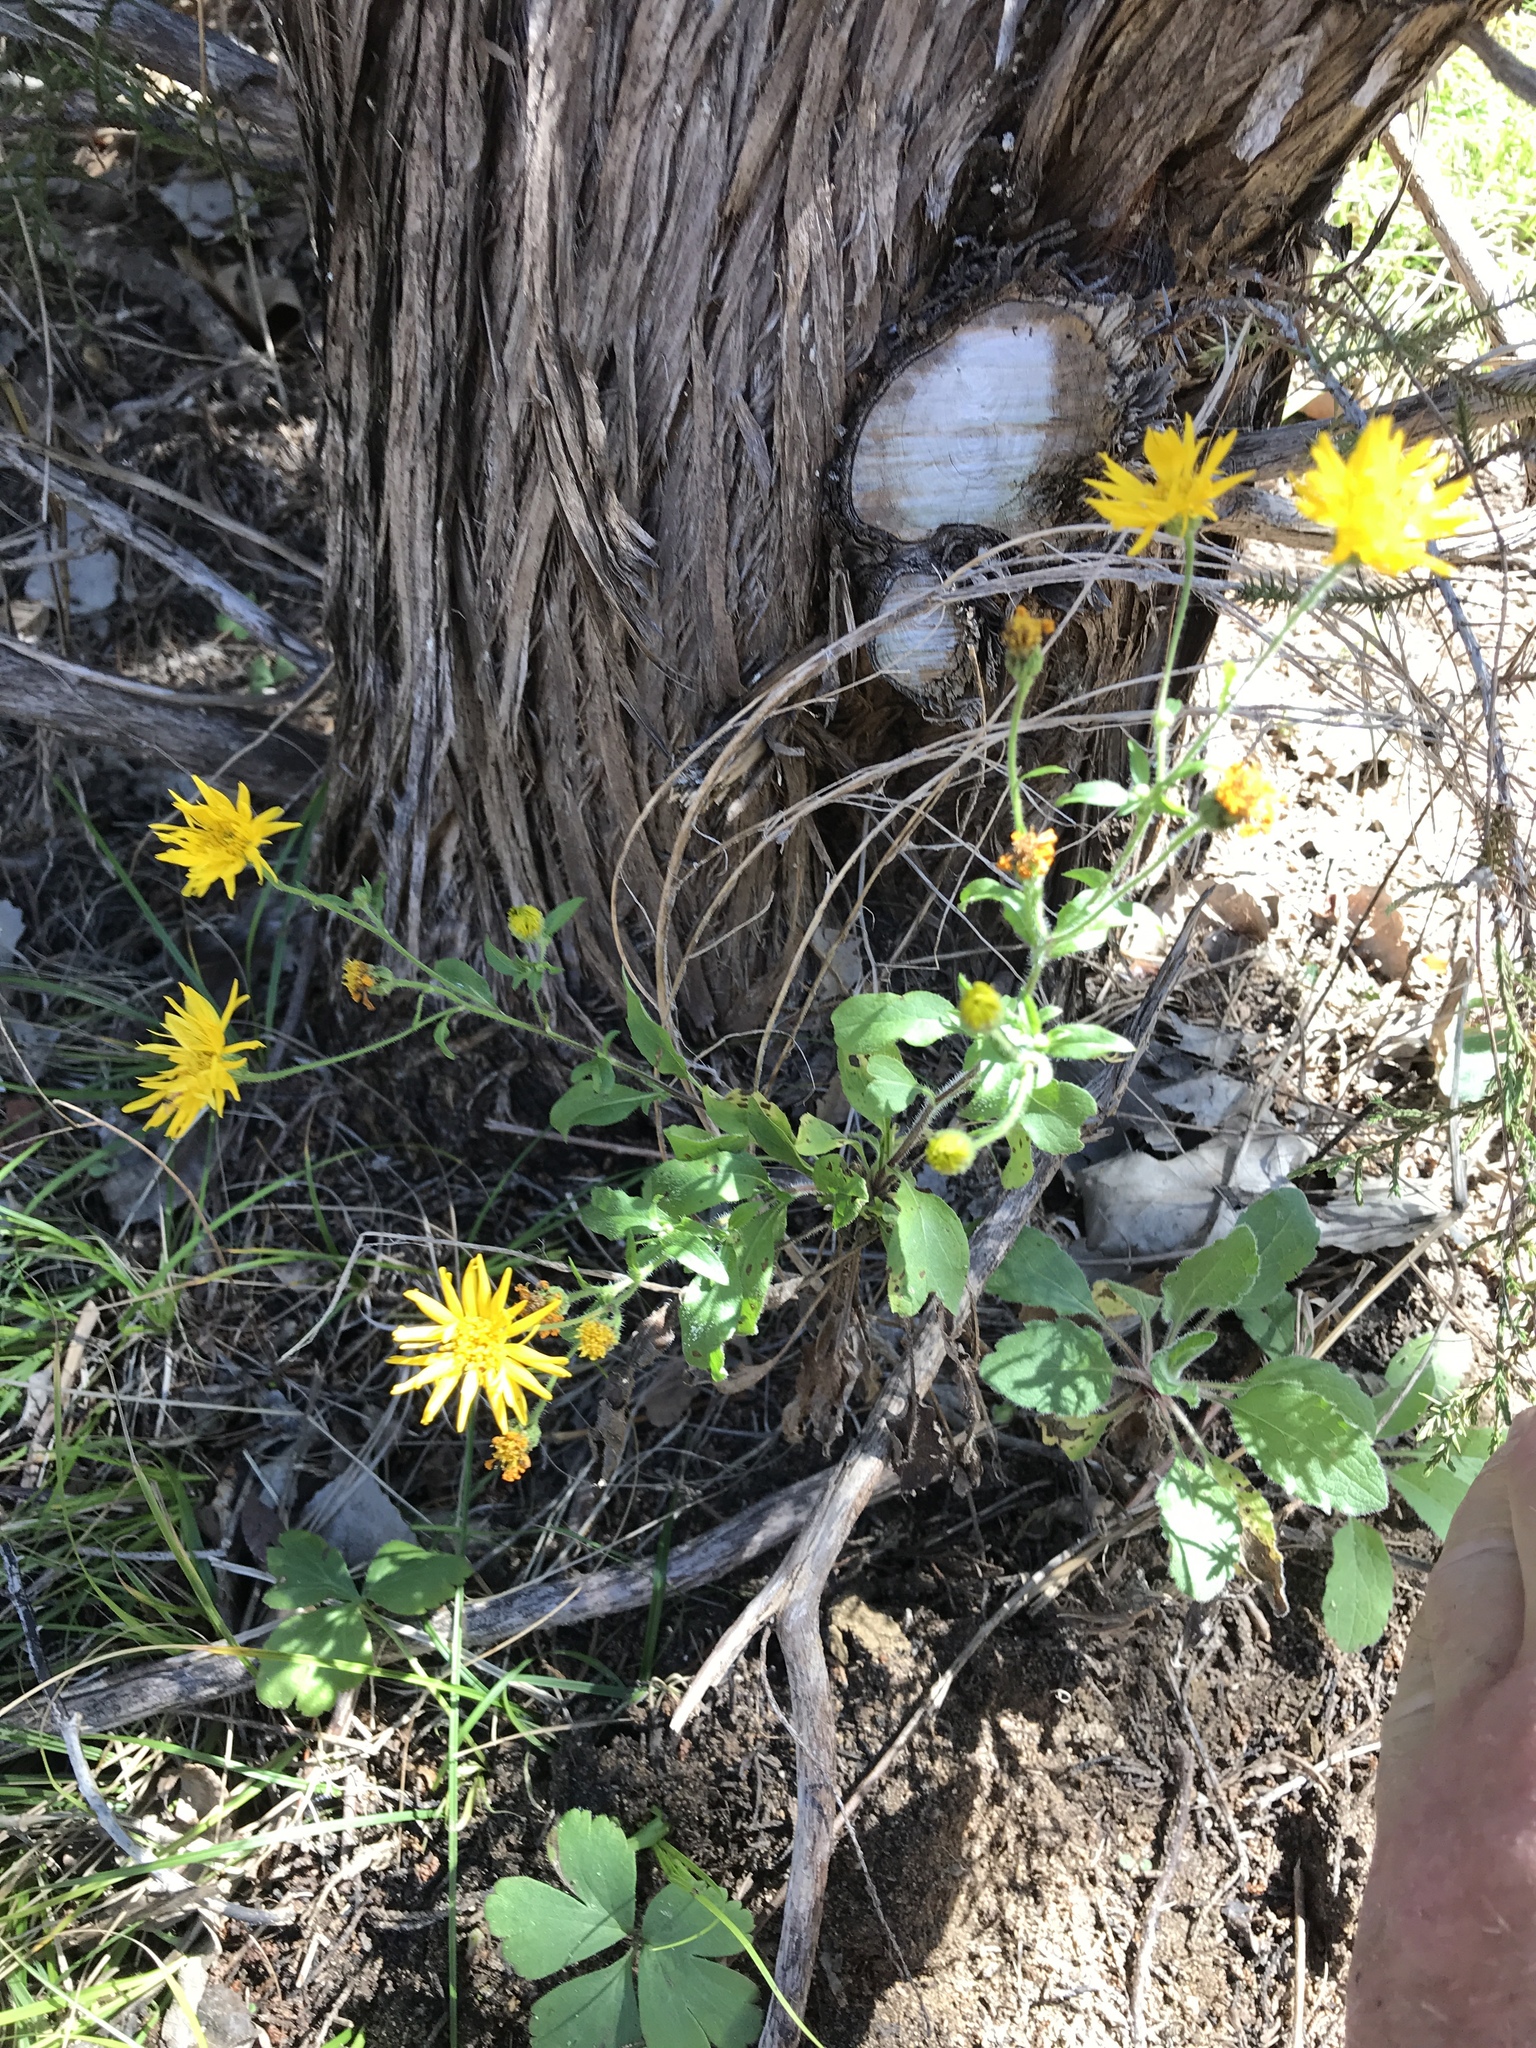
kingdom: Plantae
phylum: Tracheophyta
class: Magnoliopsida
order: Asterales
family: Asteraceae
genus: Heterotheca
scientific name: Heterotheca subaxillaris
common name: Camphorweed
